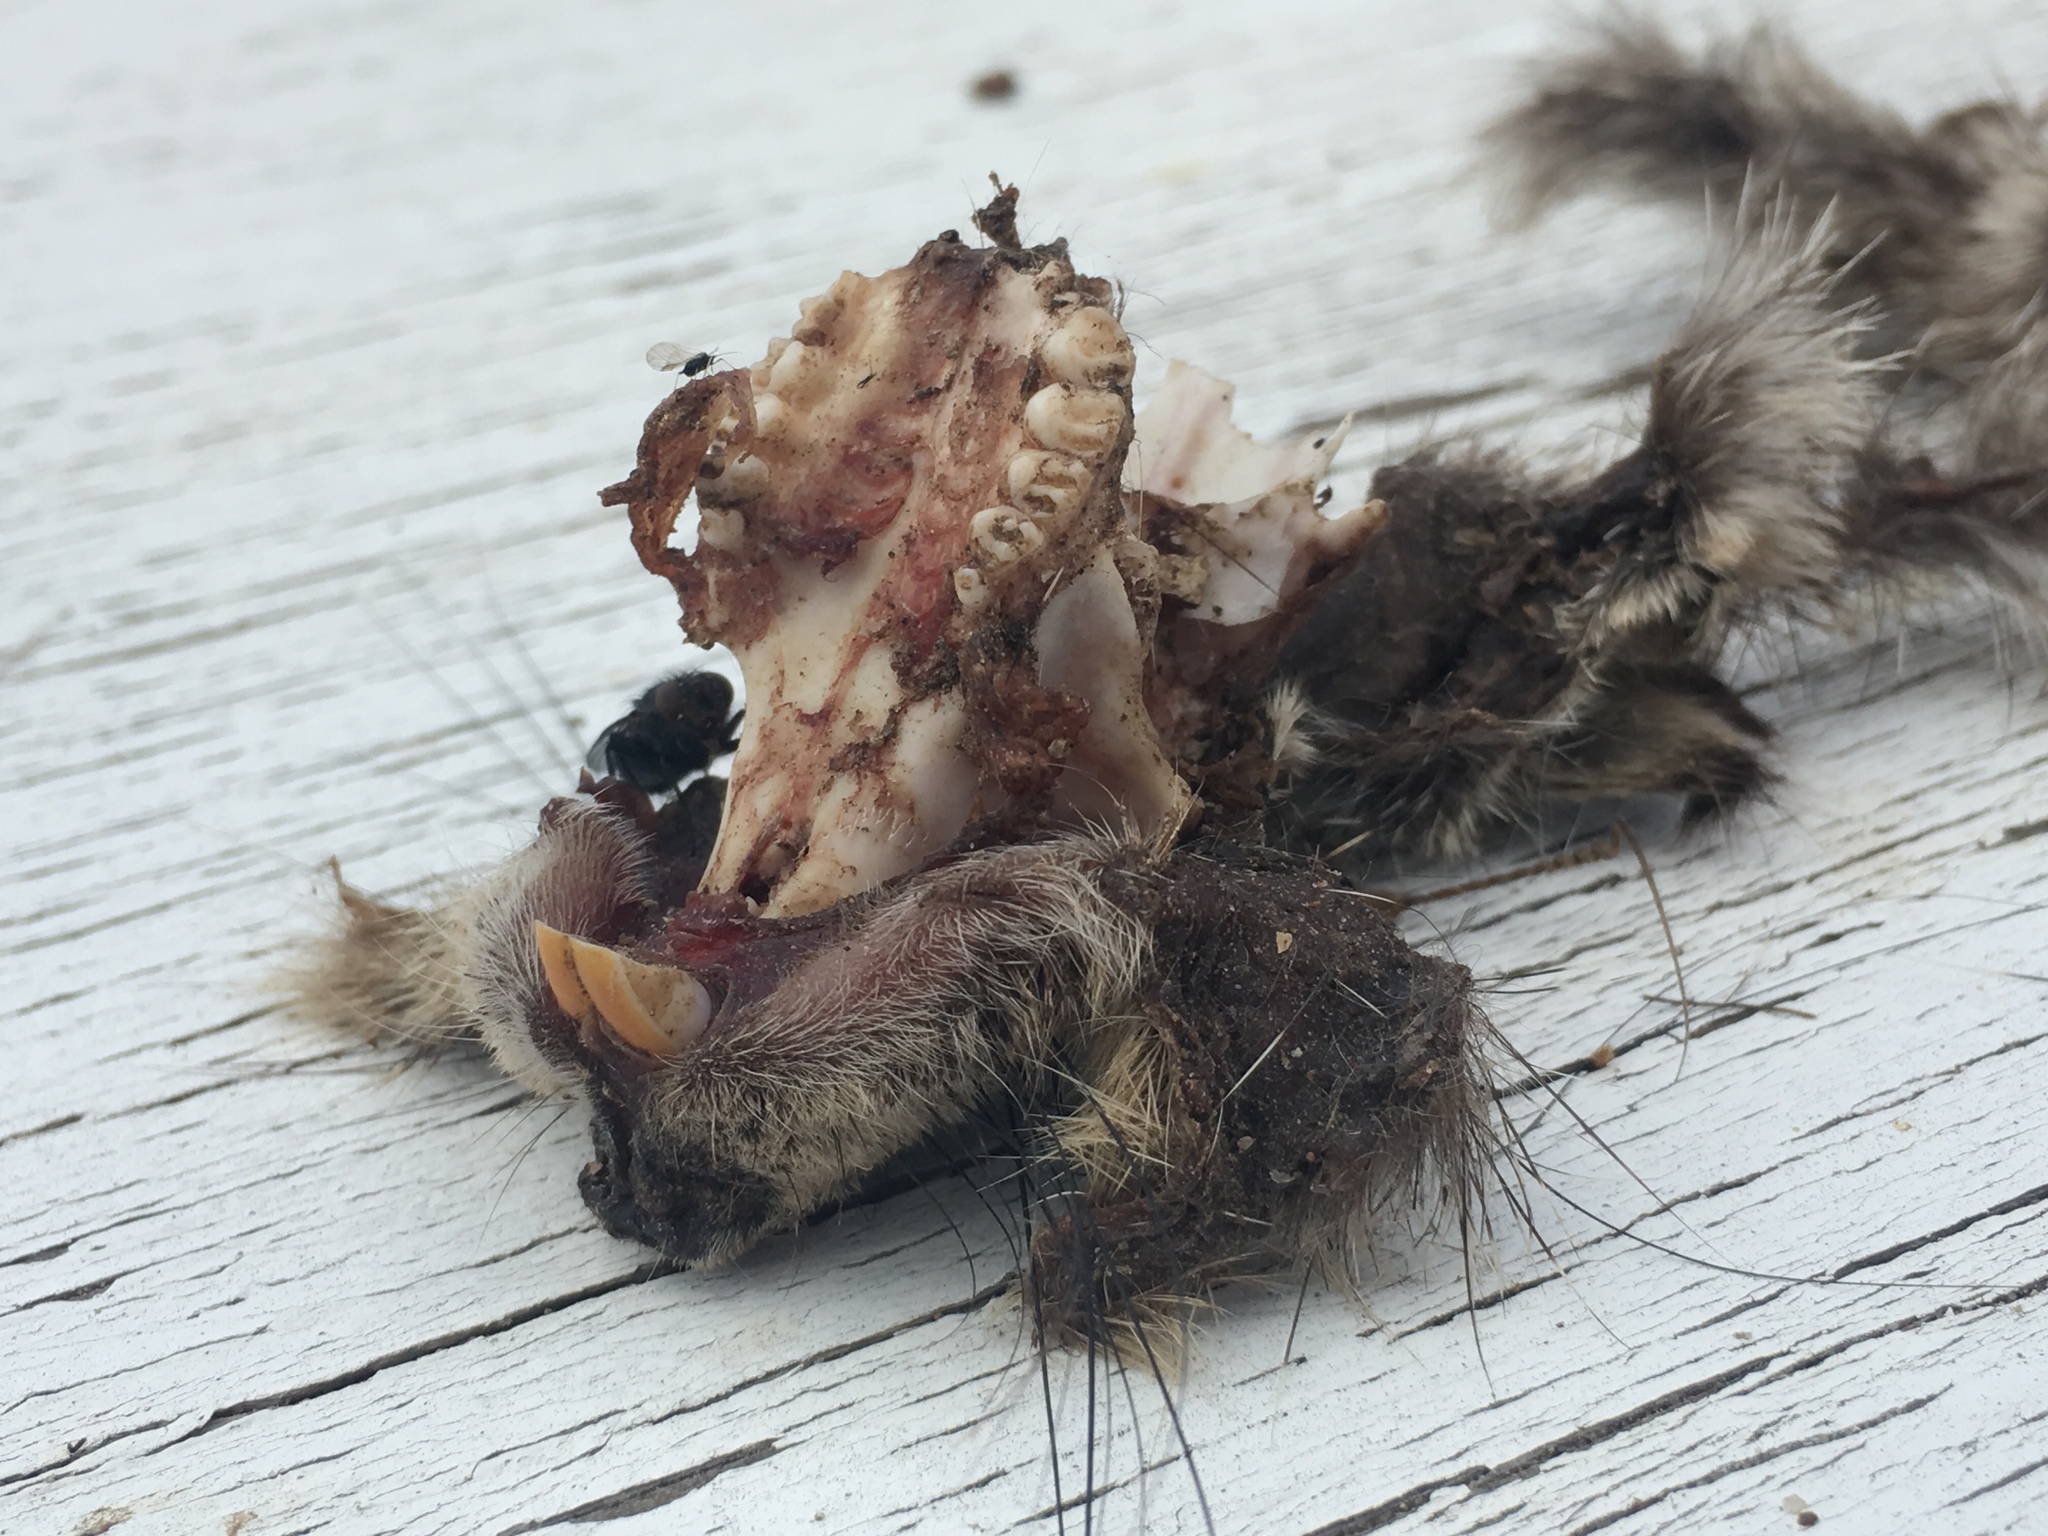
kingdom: Animalia
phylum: Chordata
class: Mammalia
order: Rodentia
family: Sciuridae
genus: Otospermophilus
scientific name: Otospermophilus beecheyi
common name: California ground squirrel
